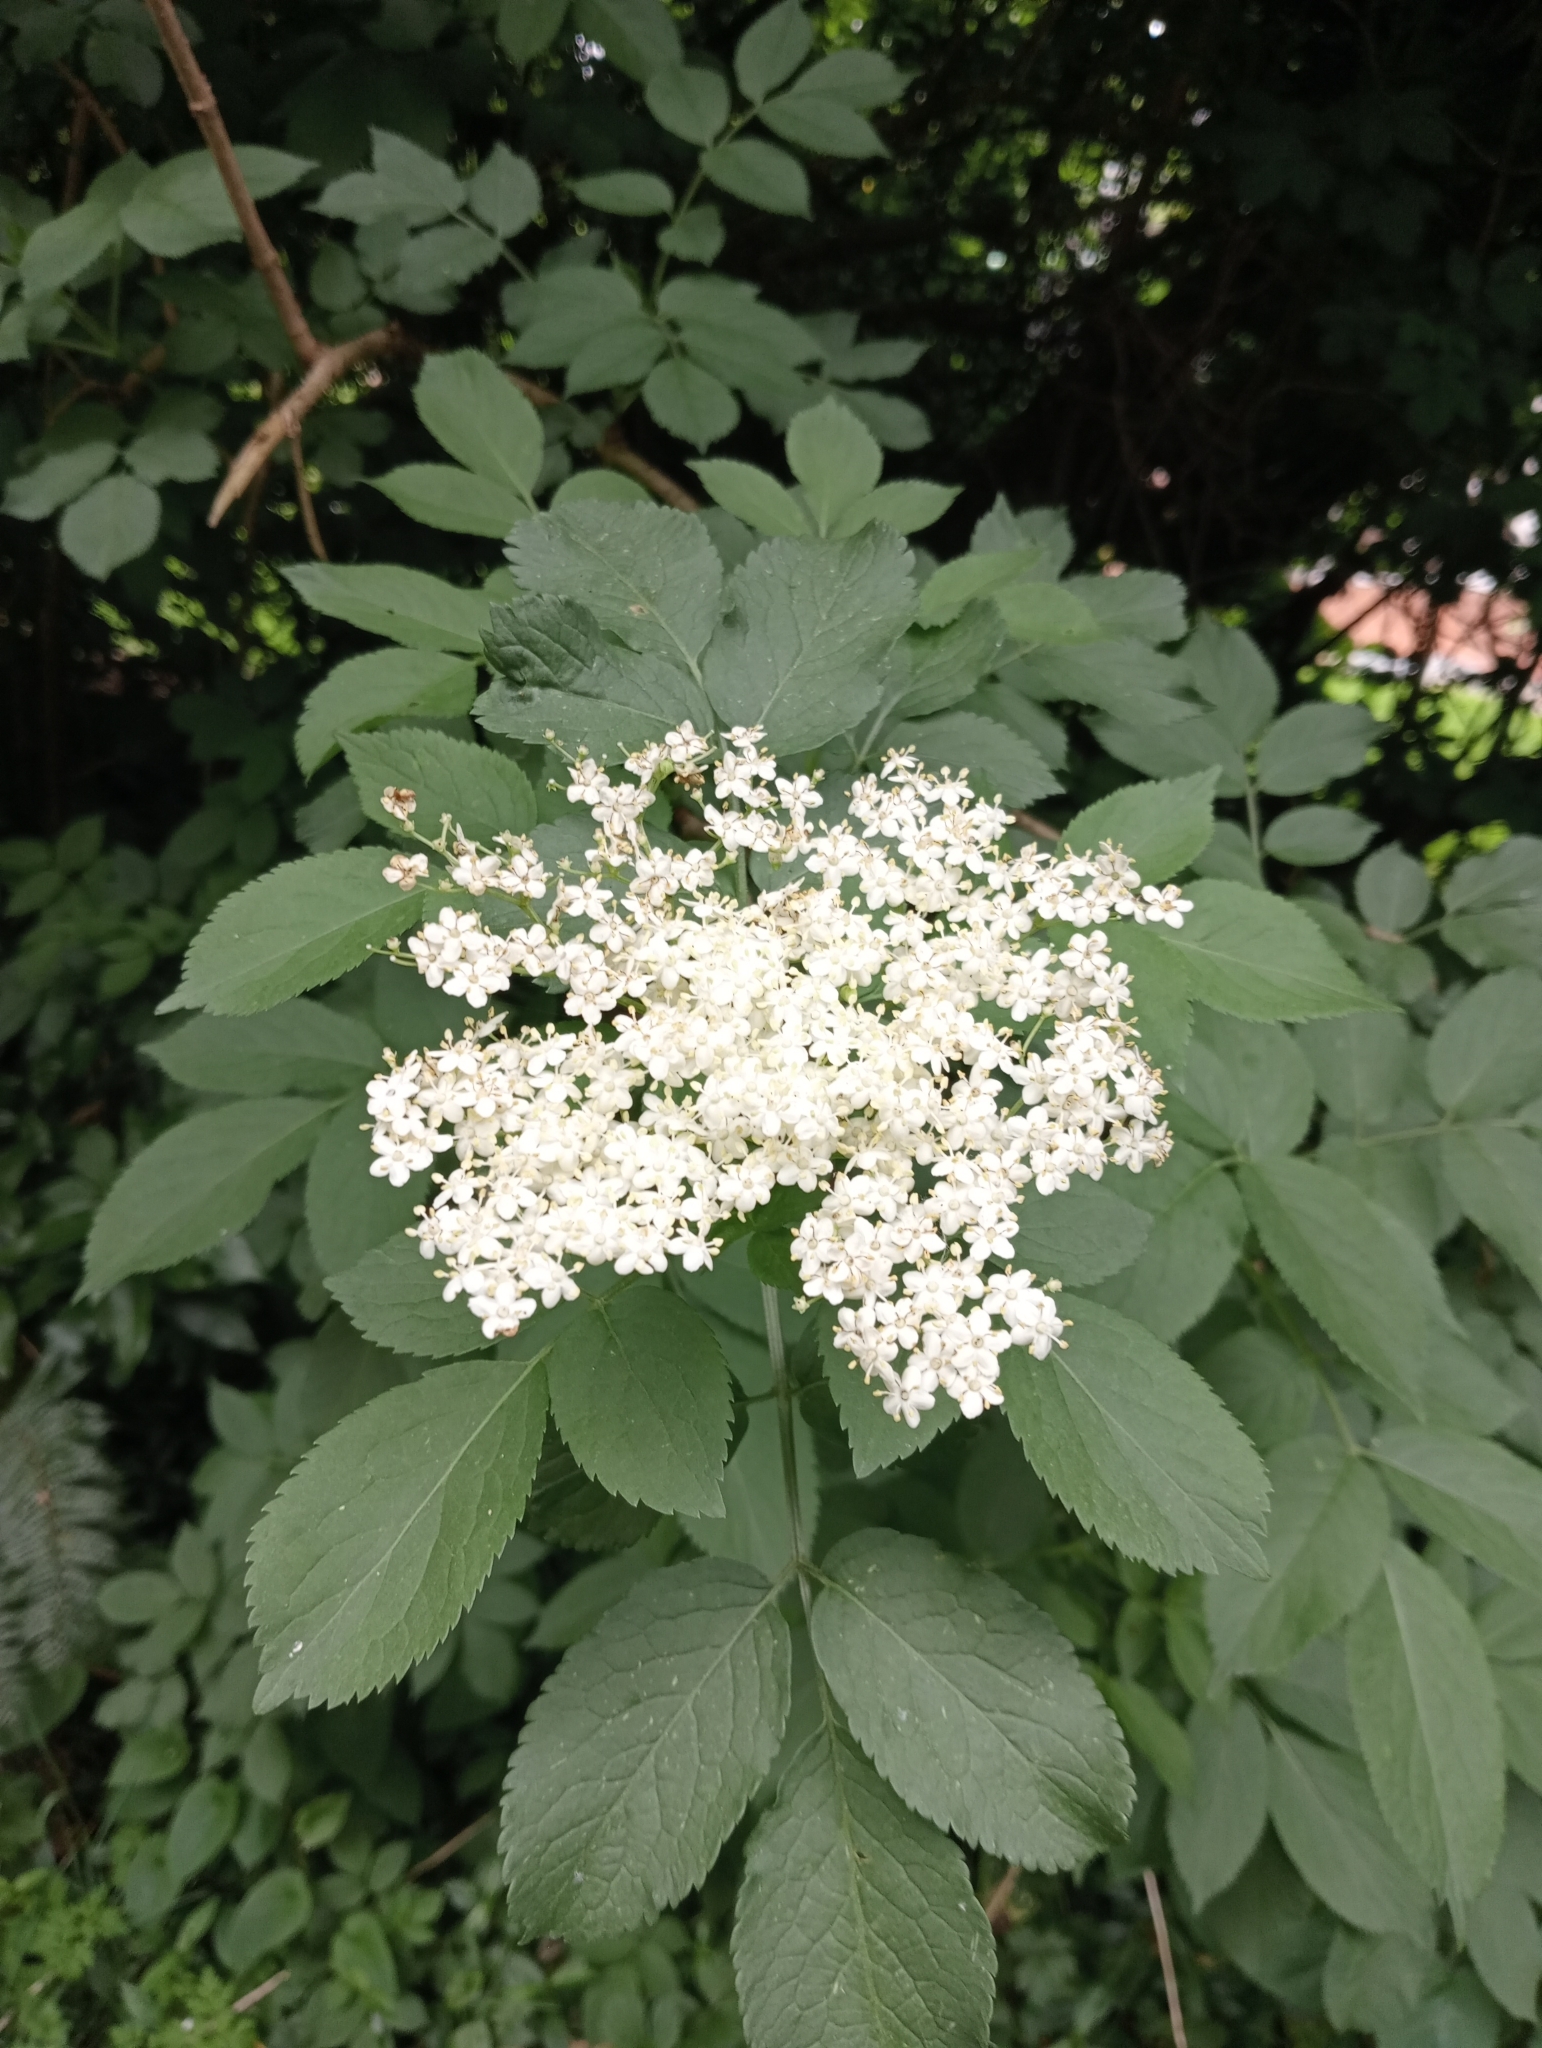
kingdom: Plantae
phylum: Tracheophyta
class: Magnoliopsida
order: Dipsacales
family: Viburnaceae
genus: Sambucus
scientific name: Sambucus nigra
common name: Elder
